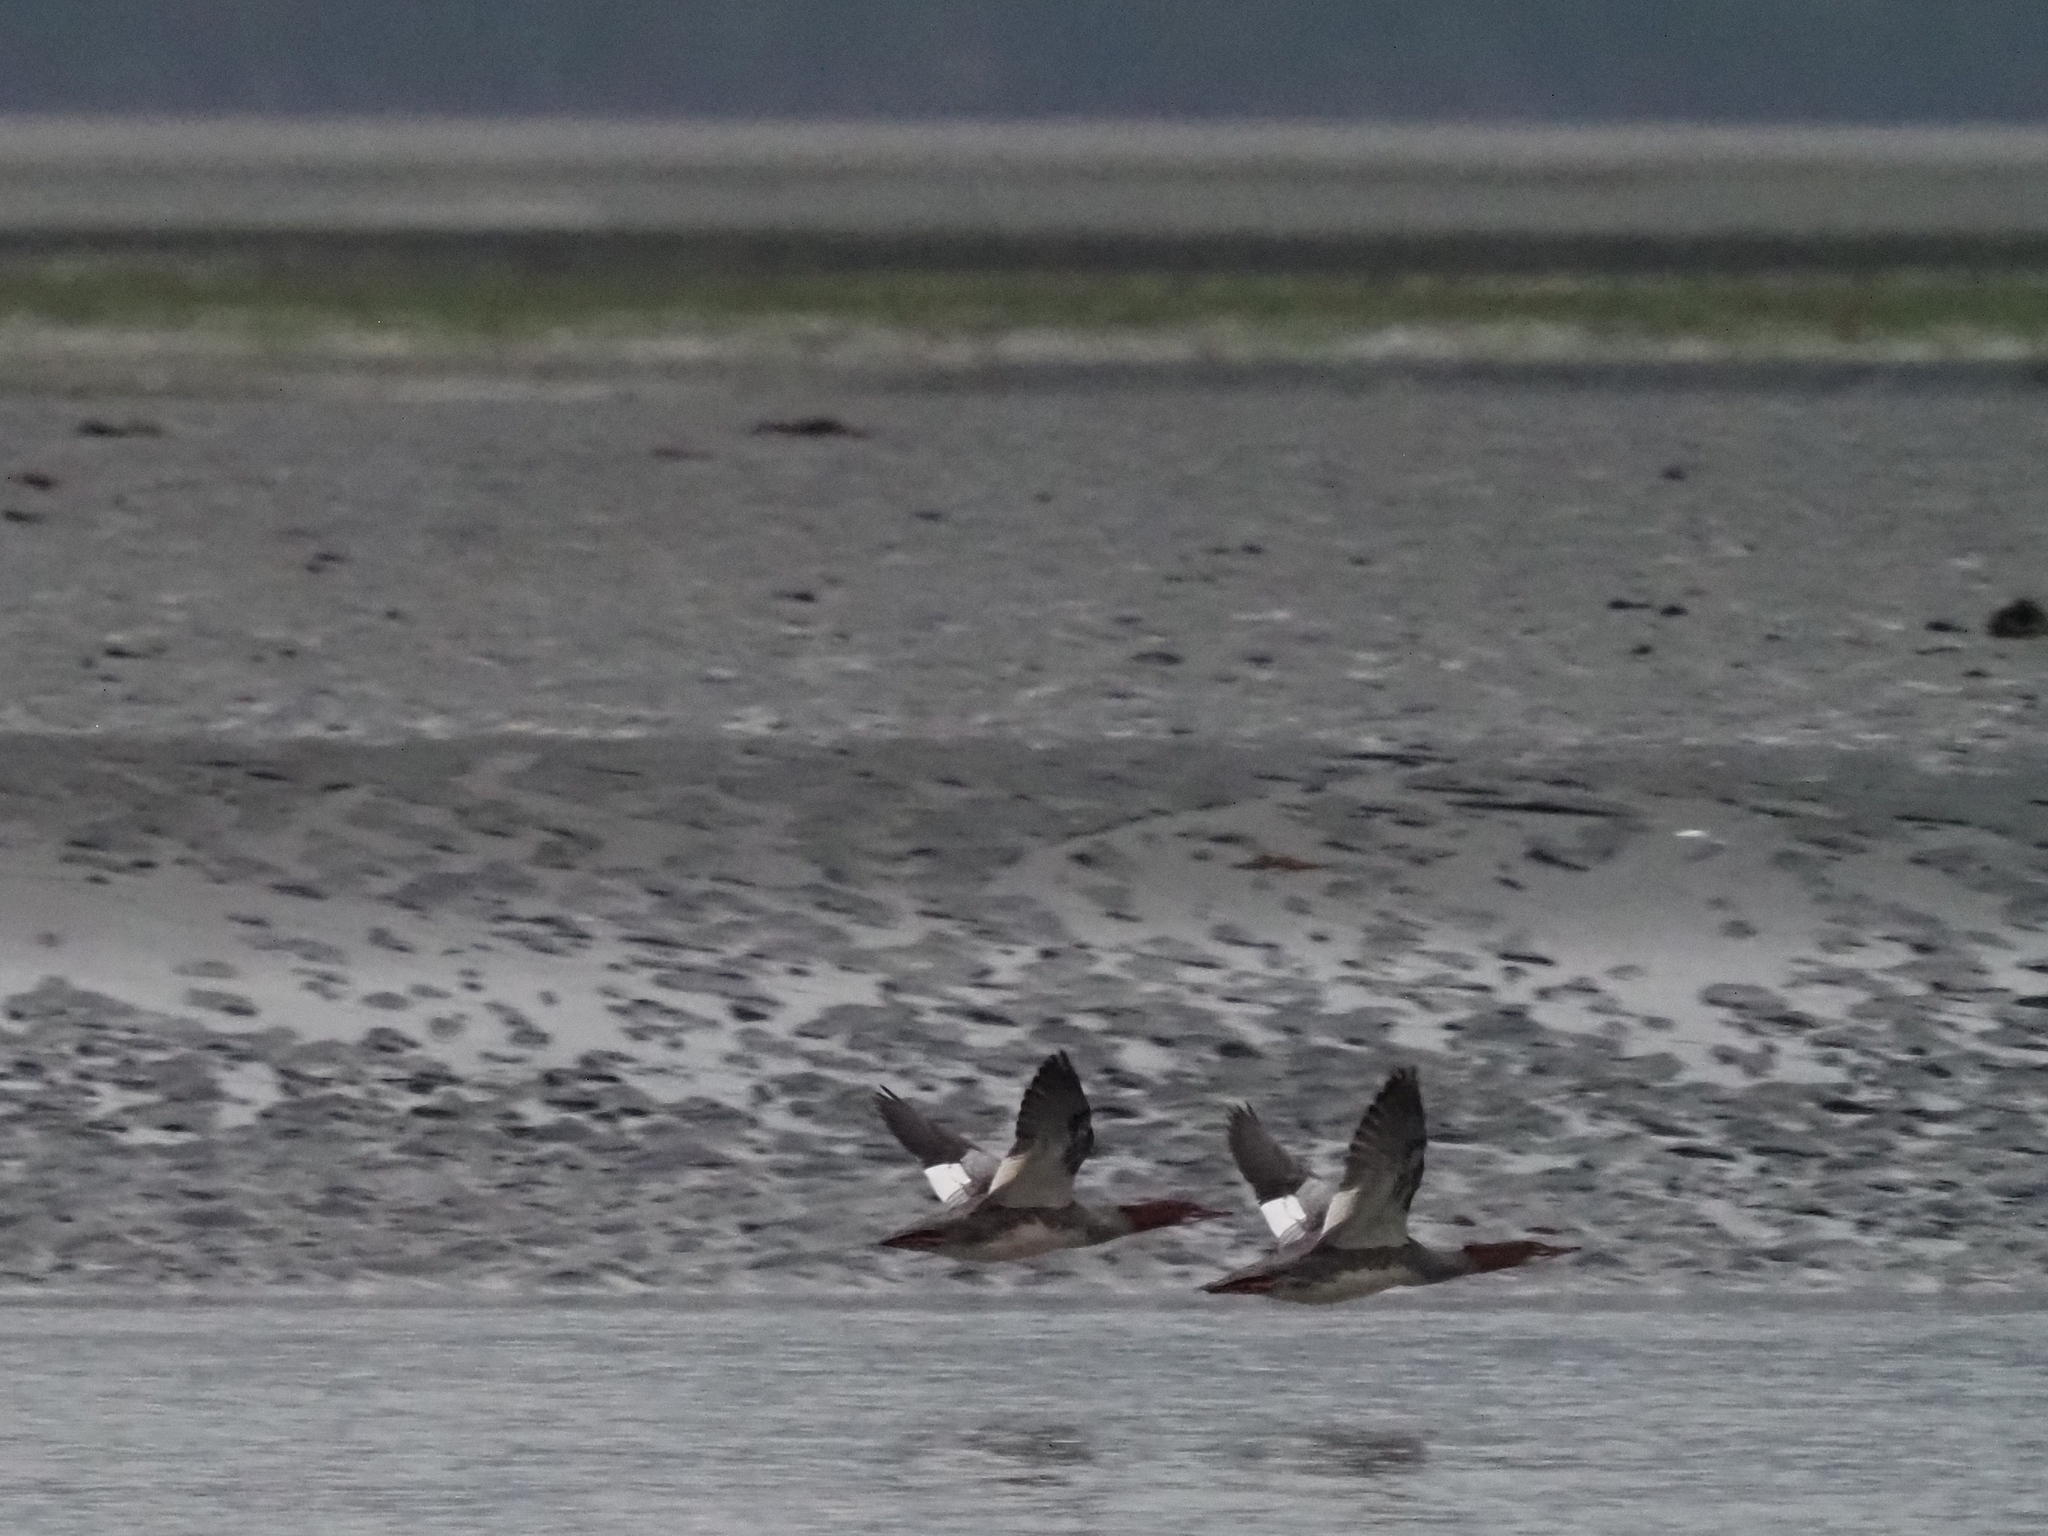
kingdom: Animalia
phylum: Chordata
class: Aves
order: Anseriformes
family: Anatidae
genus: Mergus
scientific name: Mergus merganser
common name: Common merganser
